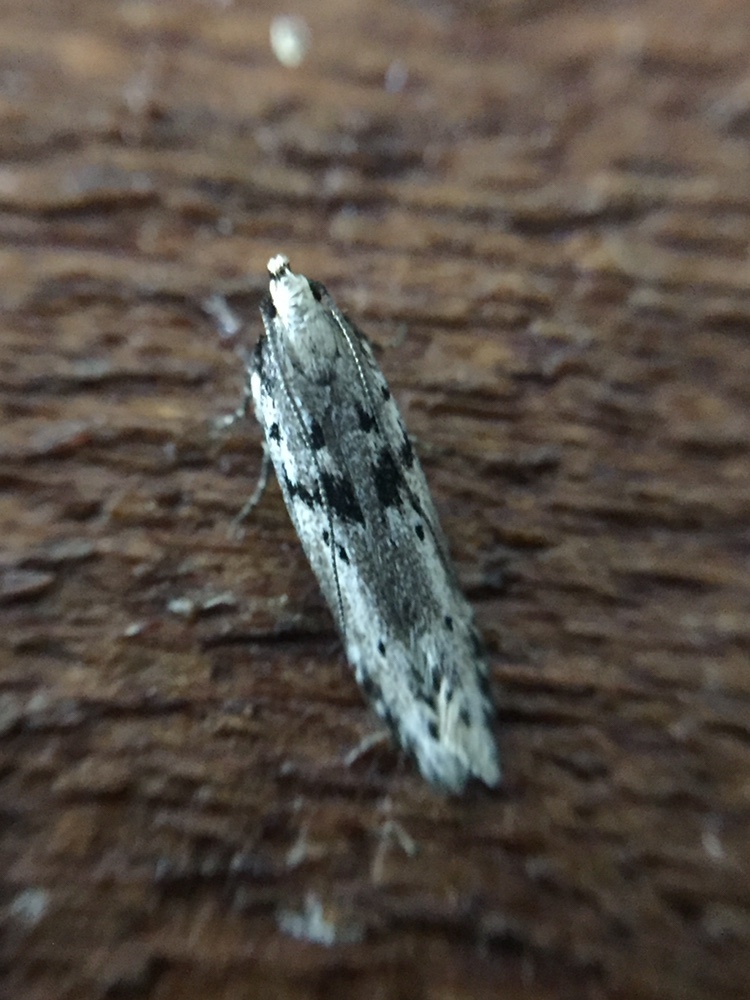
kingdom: Animalia
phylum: Arthropoda
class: Insecta
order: Lepidoptera
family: Gelechiidae
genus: Aristotelia
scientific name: Aristotelia paradesma
